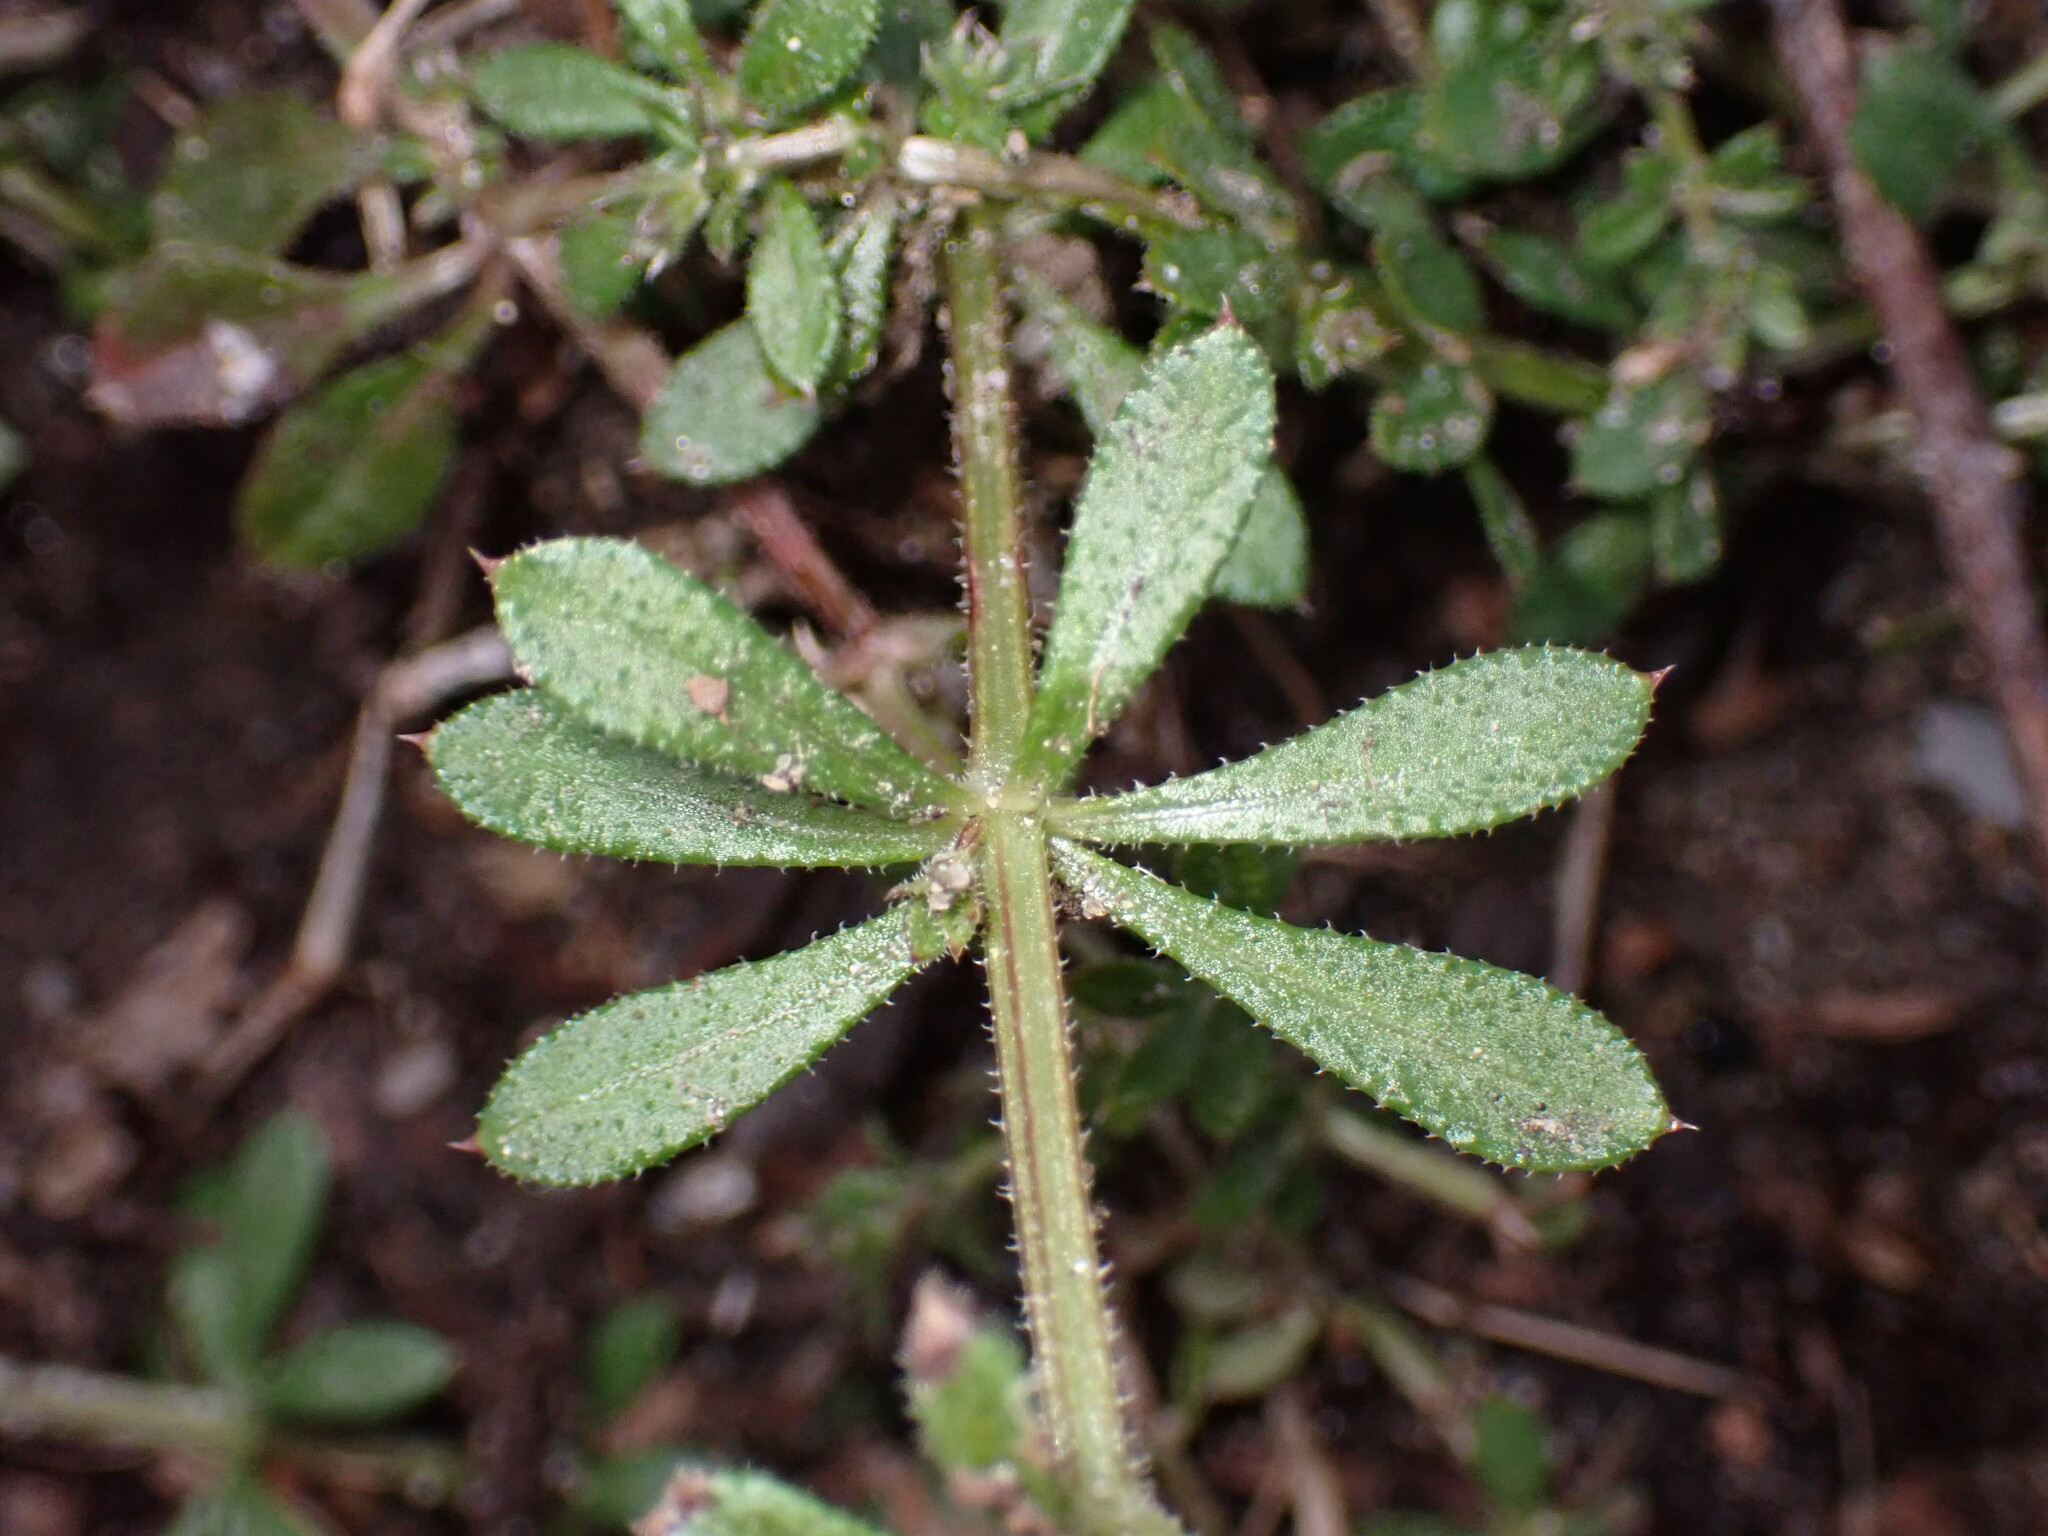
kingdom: Plantae
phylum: Tracheophyta
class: Magnoliopsida
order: Gentianales
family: Rubiaceae
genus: Galium
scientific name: Galium aparine
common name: Cleavers
